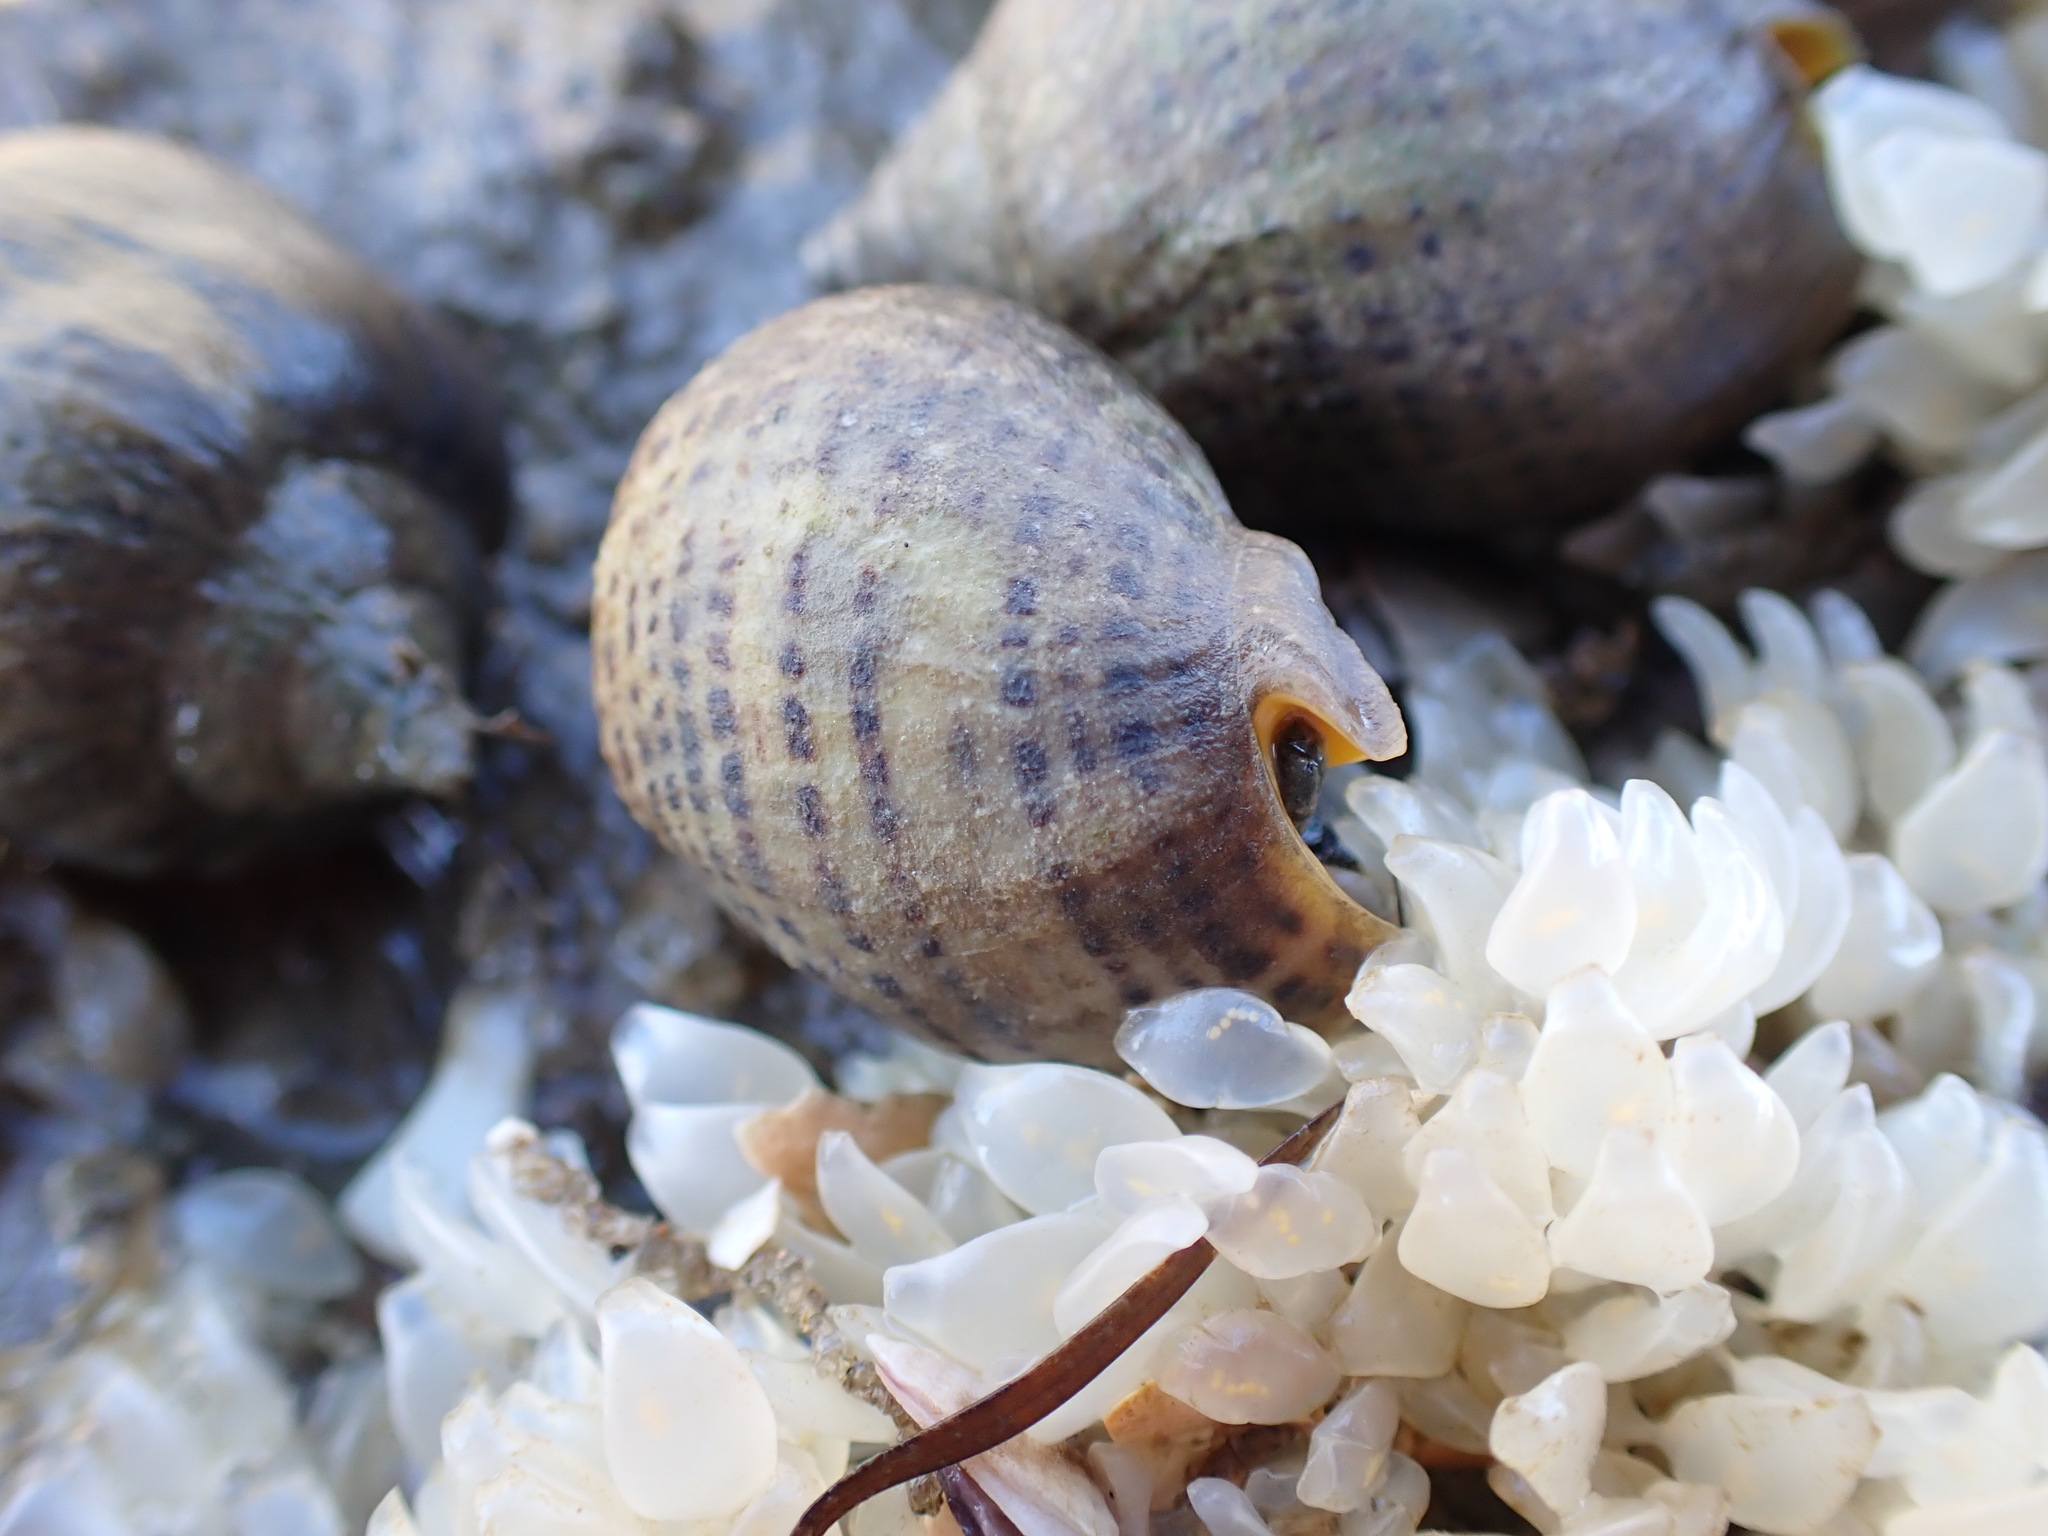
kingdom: Animalia
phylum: Mollusca
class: Gastropoda
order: Neogastropoda
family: Cominellidae
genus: Cominella
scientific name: Cominella adspersa
